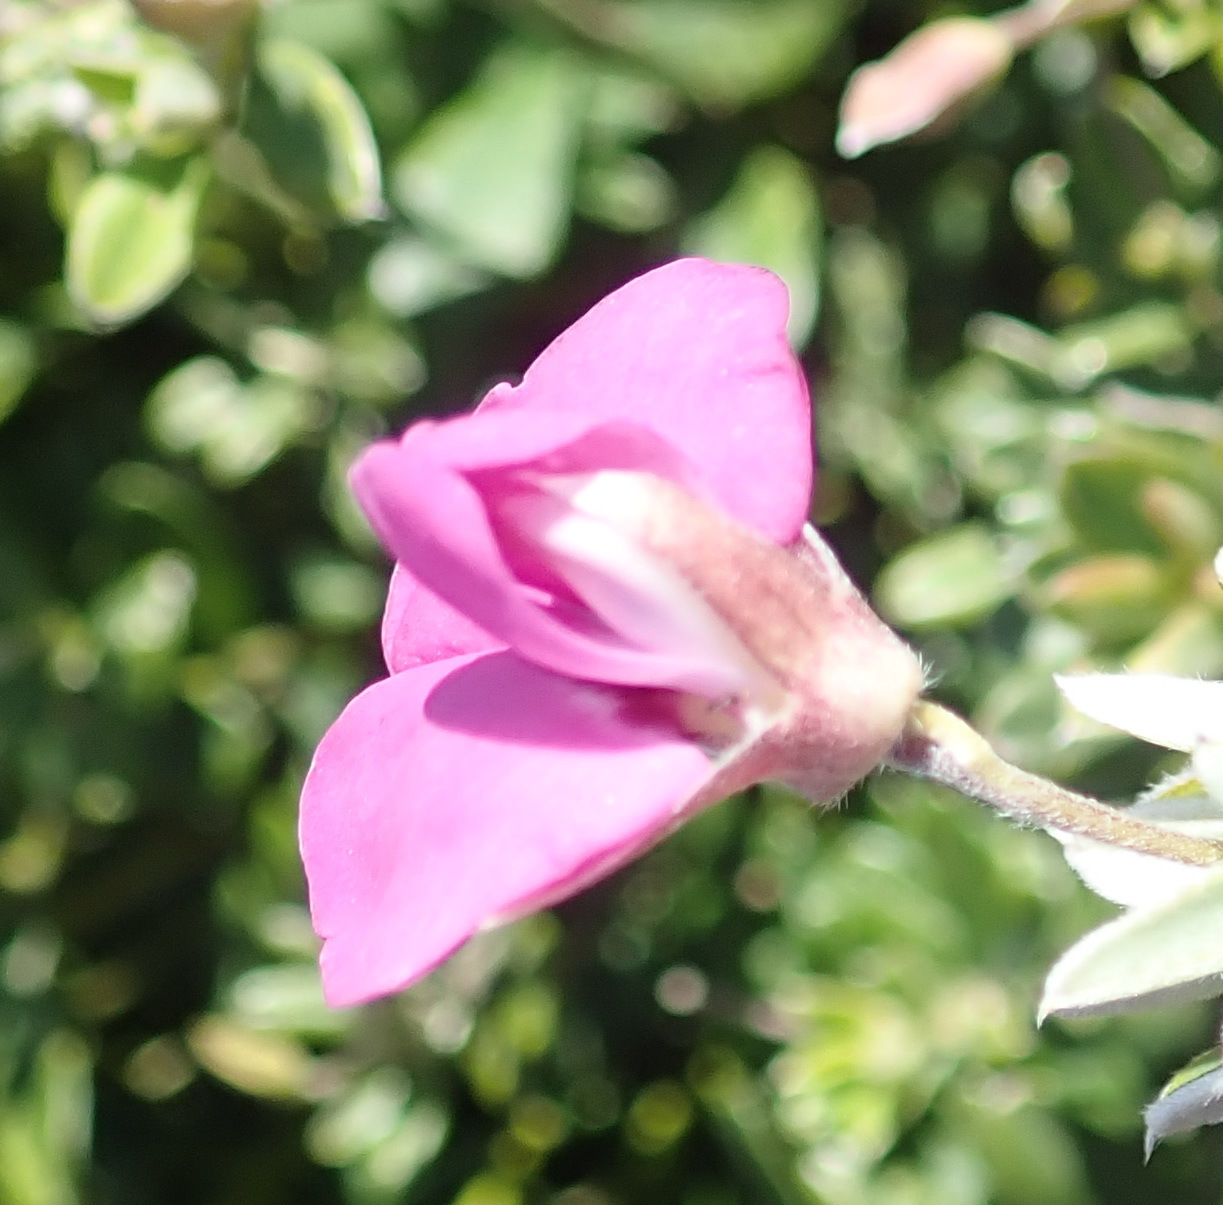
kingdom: Plantae
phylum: Tracheophyta
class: Magnoliopsida
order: Fabales
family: Fabaceae
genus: Podalyria
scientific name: Podalyria buxifolia
